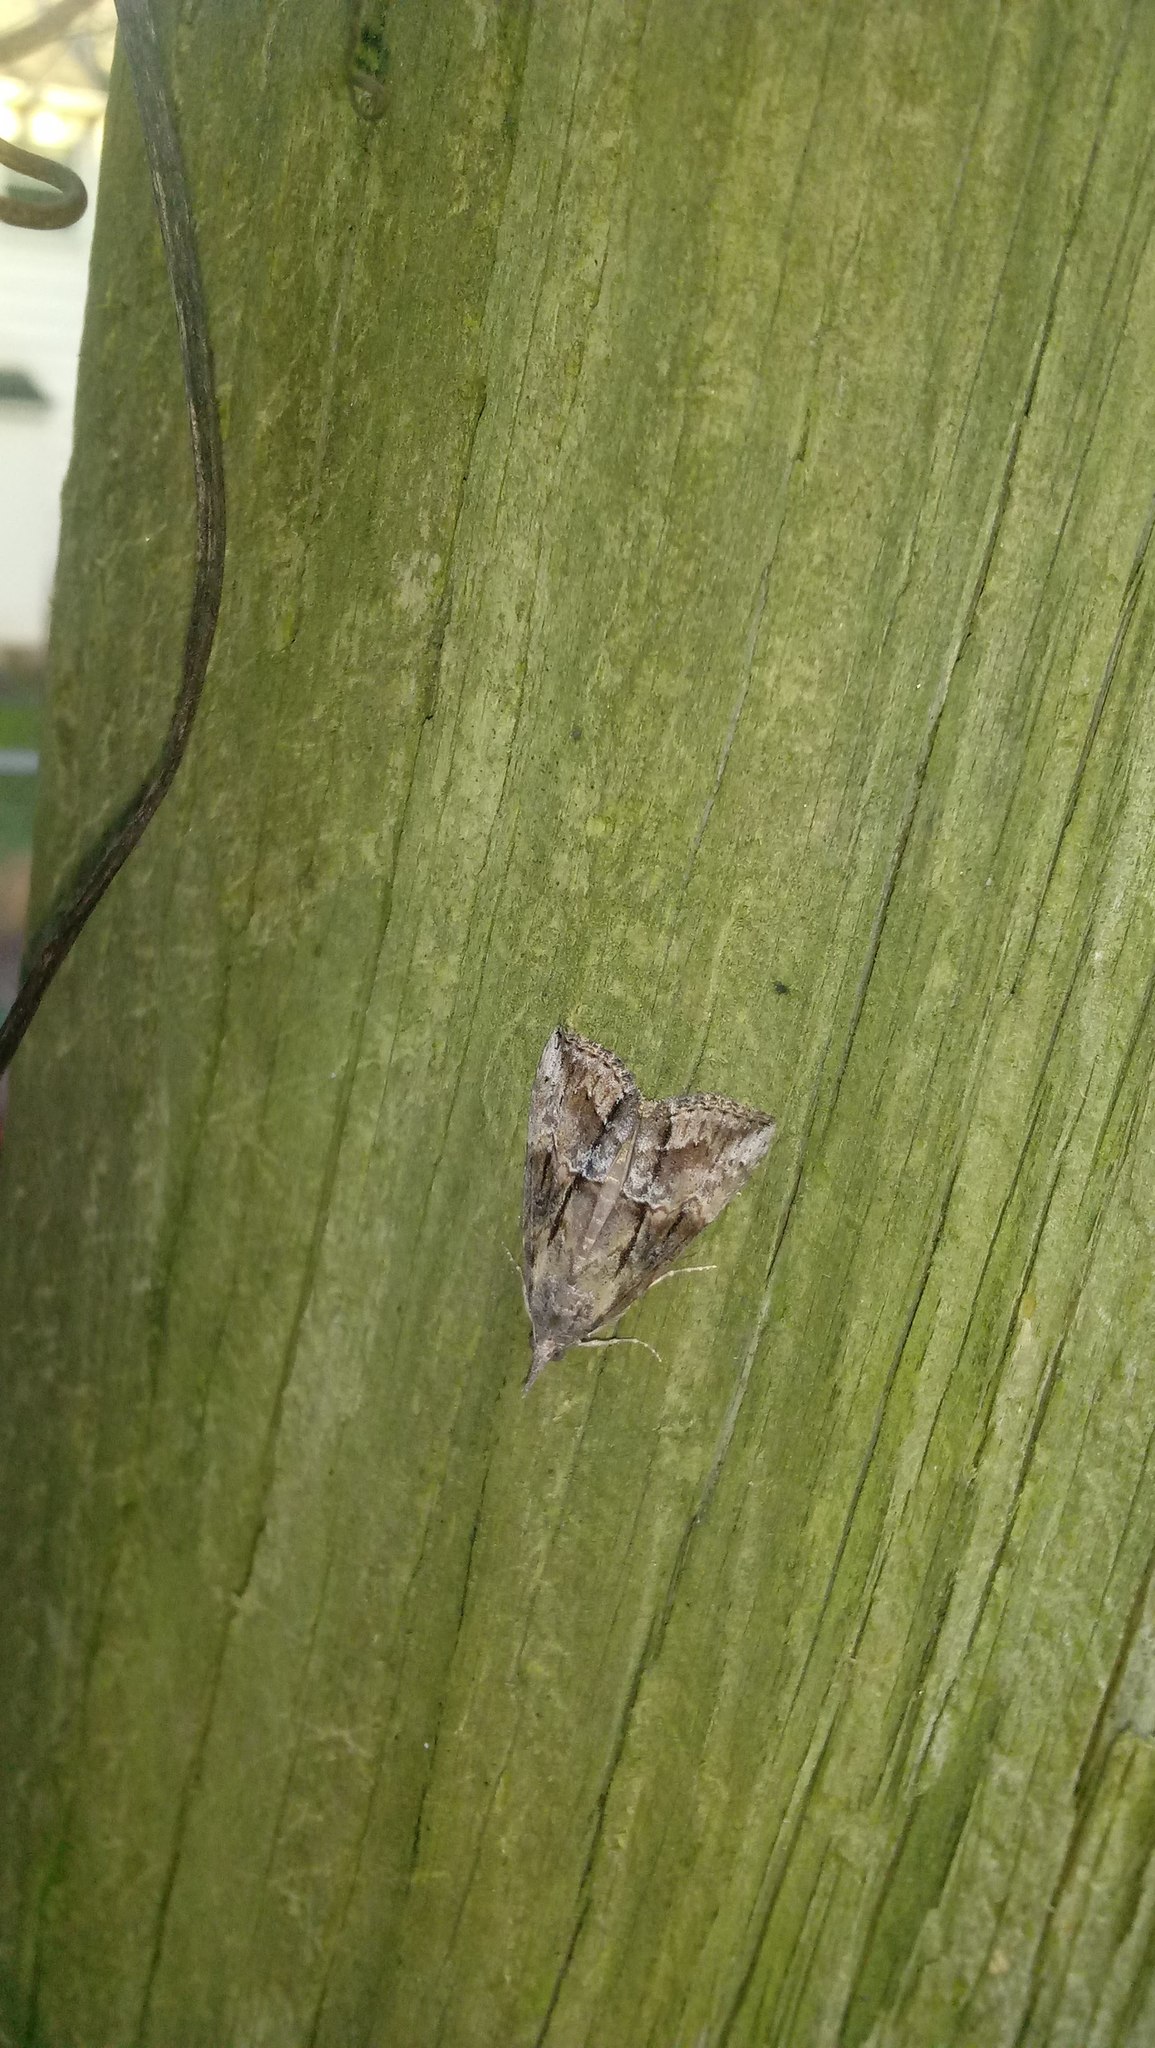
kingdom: Animalia
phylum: Arthropoda
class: Insecta
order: Lepidoptera
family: Erebidae
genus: Hypena
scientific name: Hypena scabra
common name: Green cloverworm
